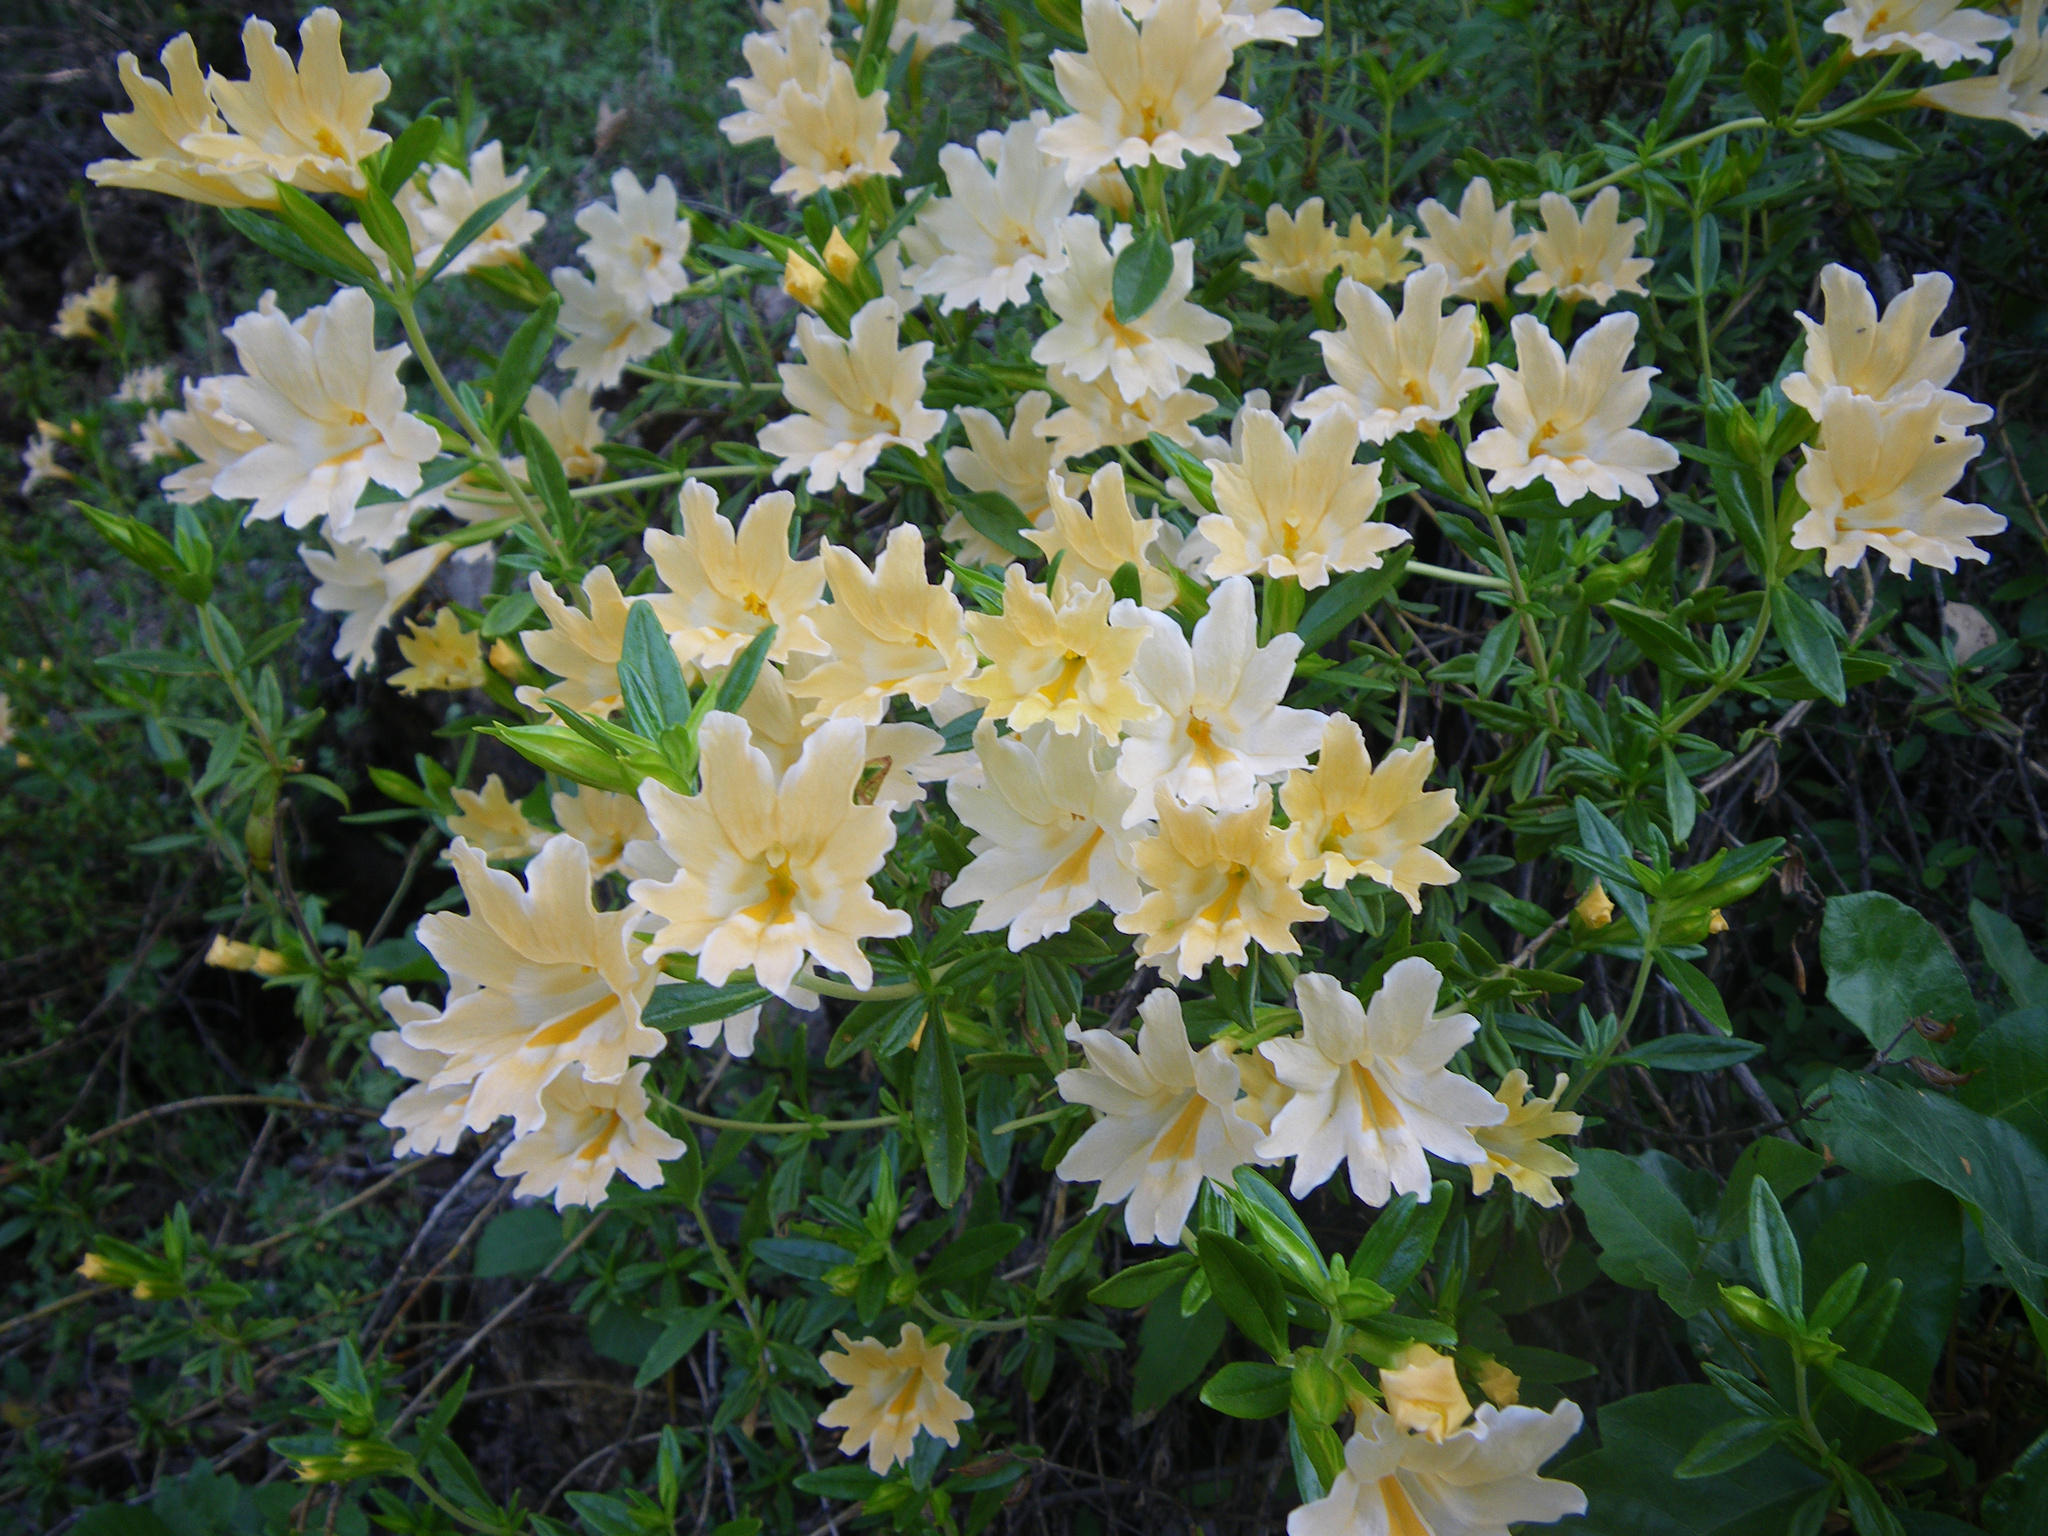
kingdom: Plantae
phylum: Tracheophyta
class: Magnoliopsida
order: Lamiales
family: Phrymaceae
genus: Diplacus
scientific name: Diplacus grandiflorus
